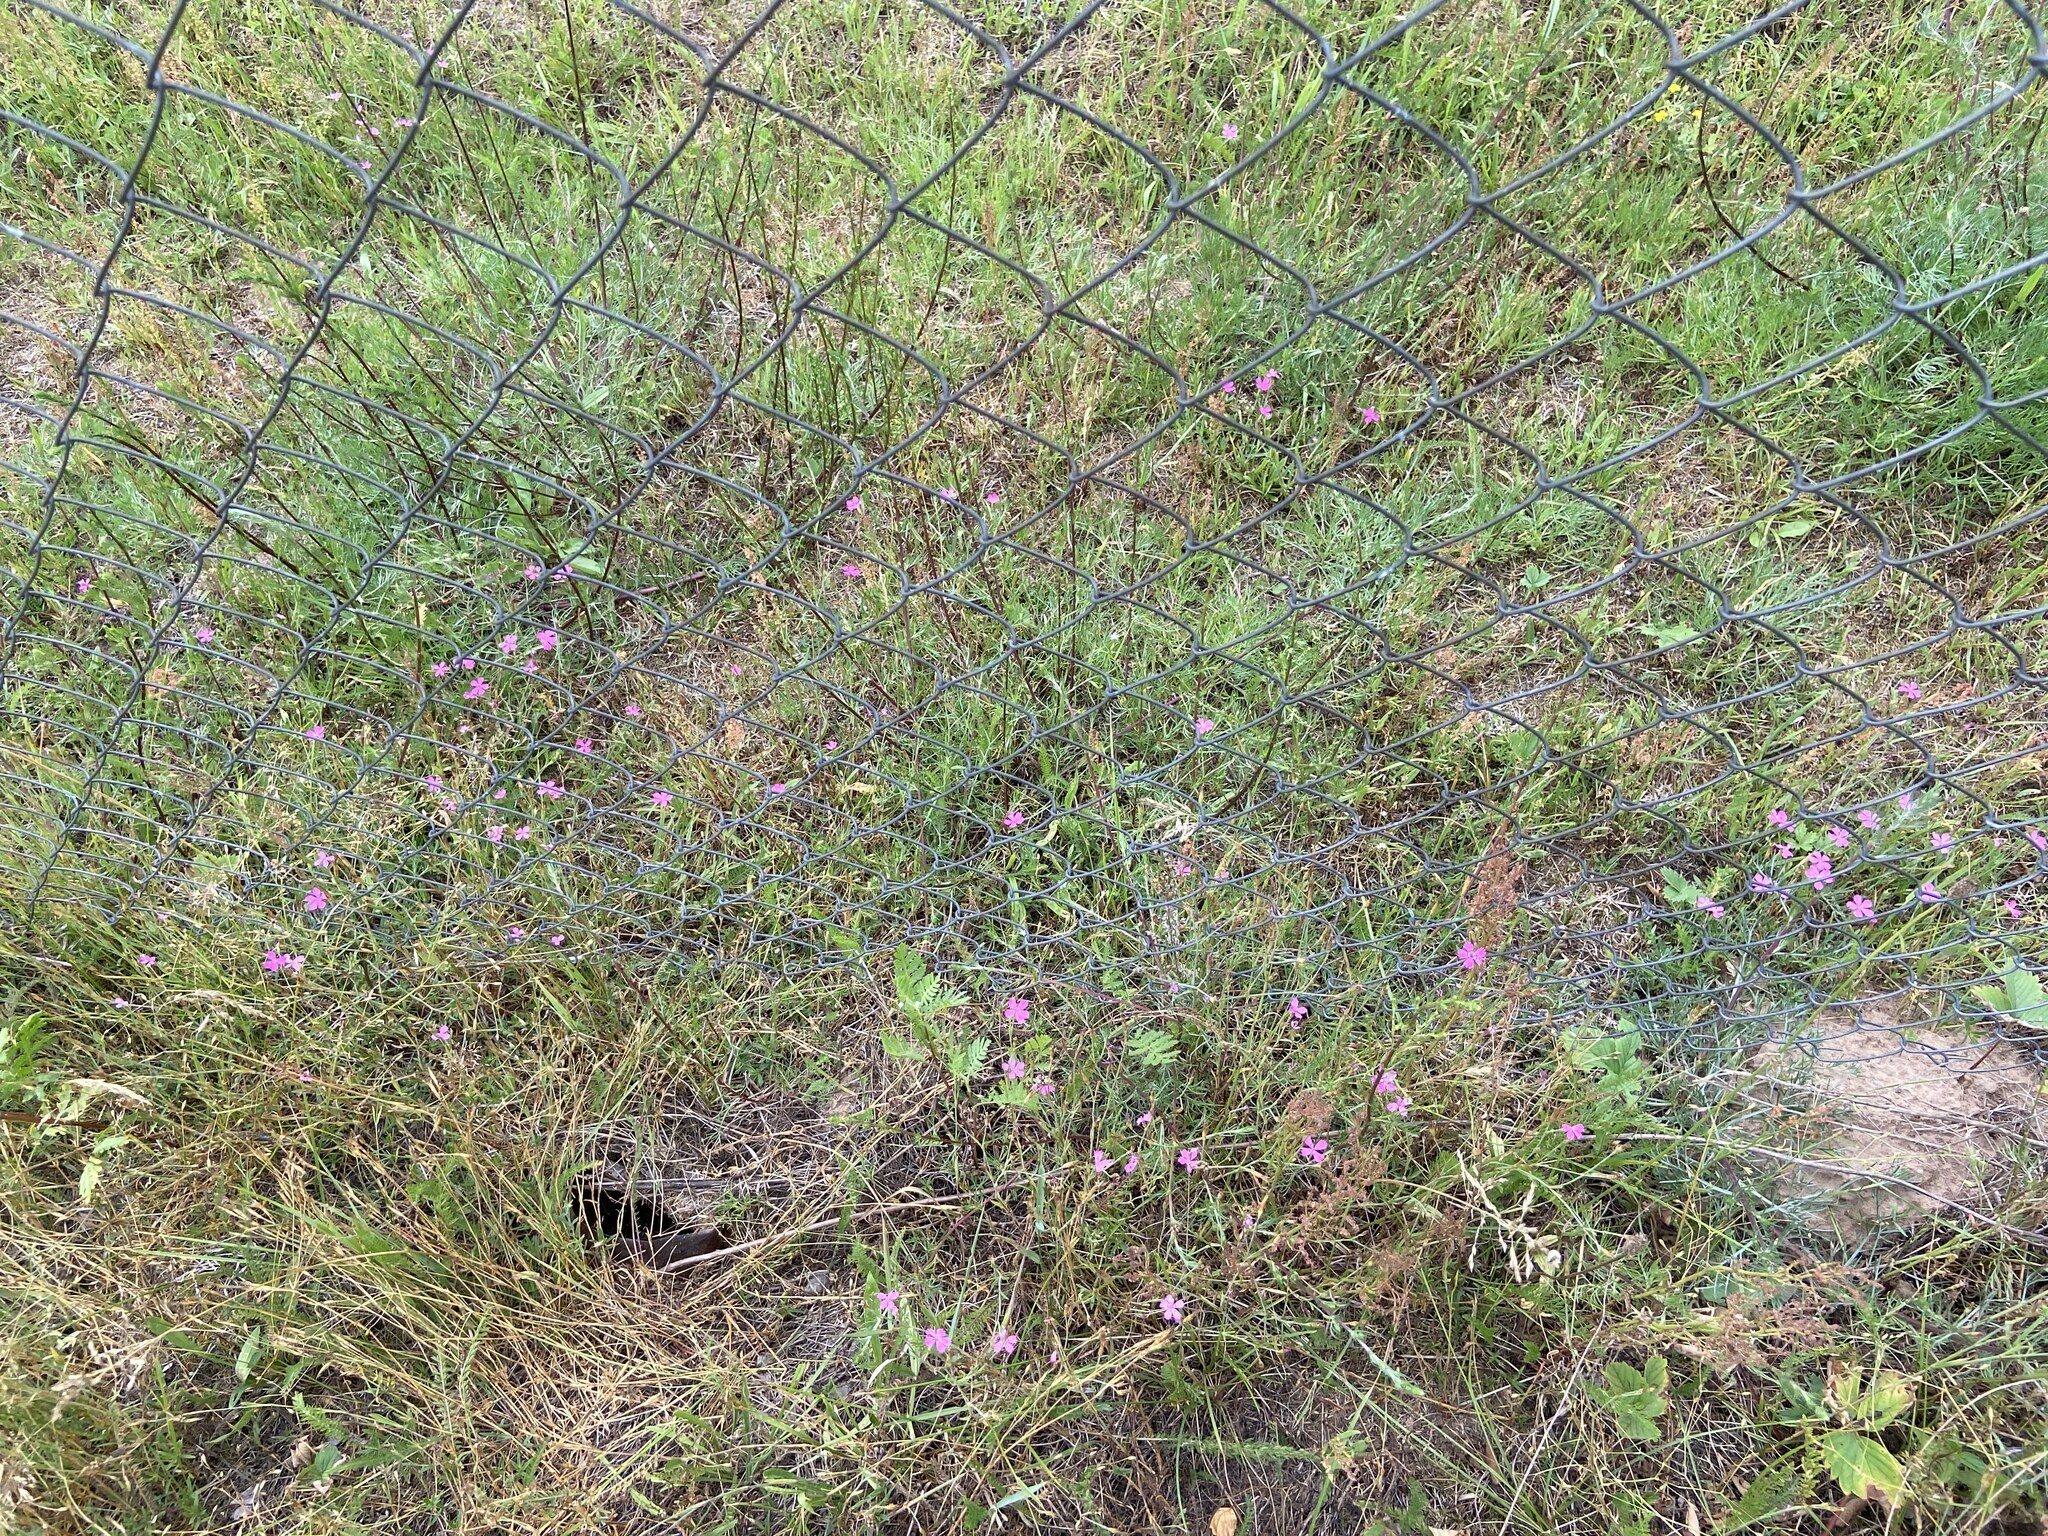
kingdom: Plantae
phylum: Tracheophyta
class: Magnoliopsida
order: Caryophyllales
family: Caryophyllaceae
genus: Dianthus
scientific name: Dianthus deltoides
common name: Maiden pink
